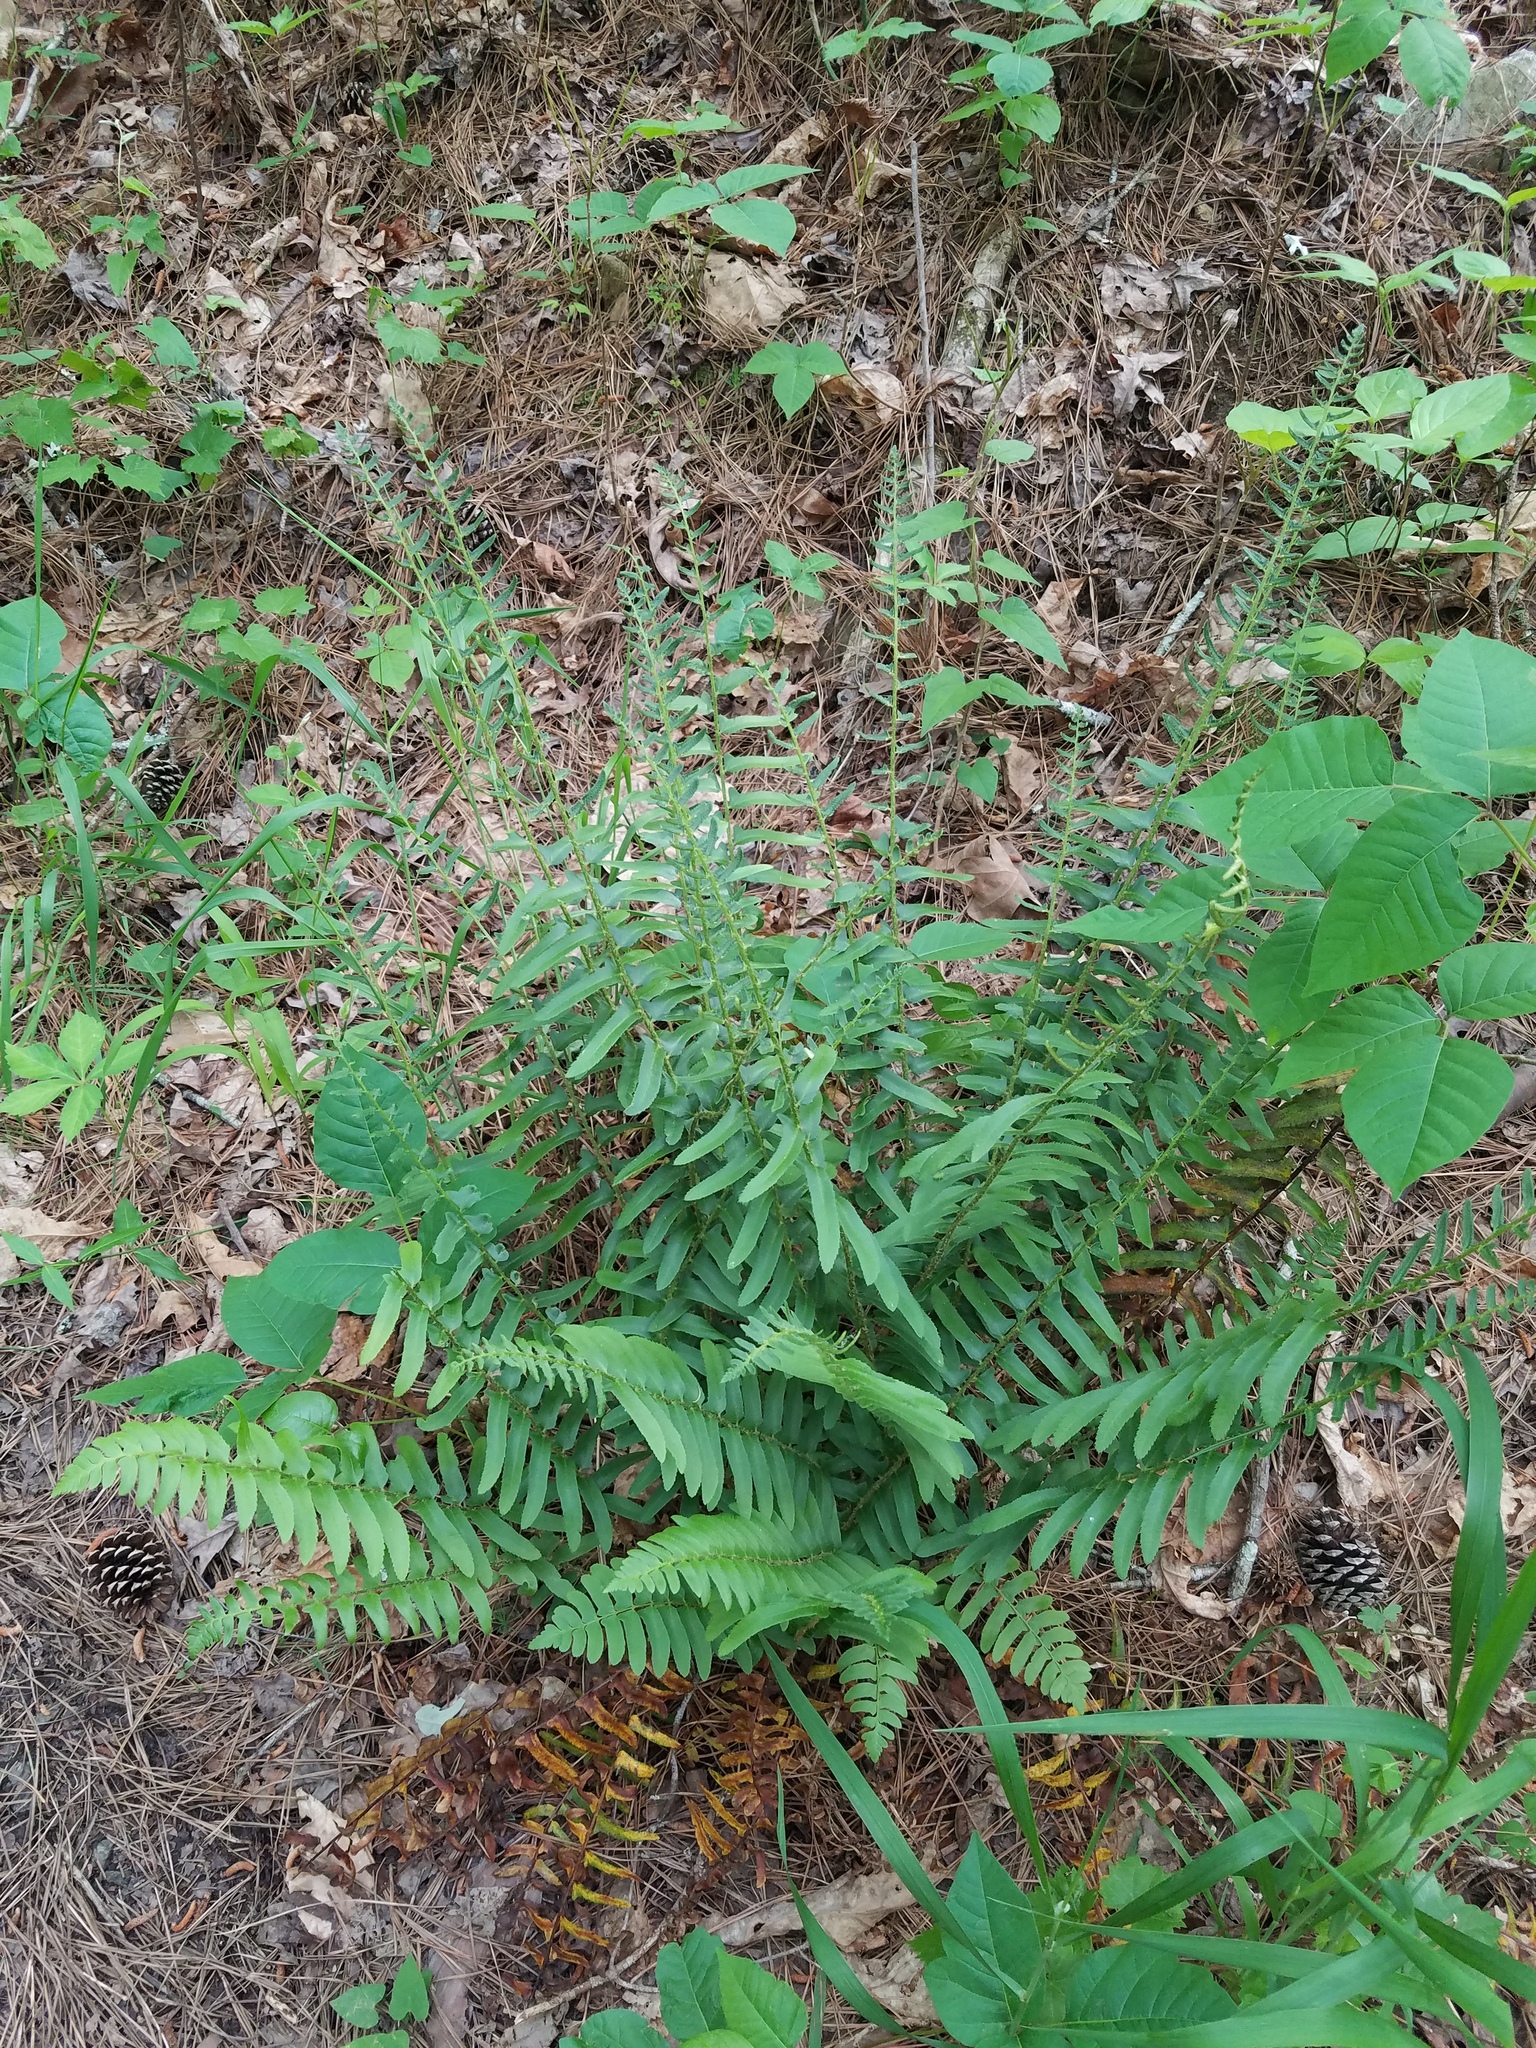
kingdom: Plantae
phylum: Tracheophyta
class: Polypodiopsida
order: Polypodiales
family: Dryopteridaceae
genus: Polystichum
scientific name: Polystichum acrostichoides
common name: Christmas fern
